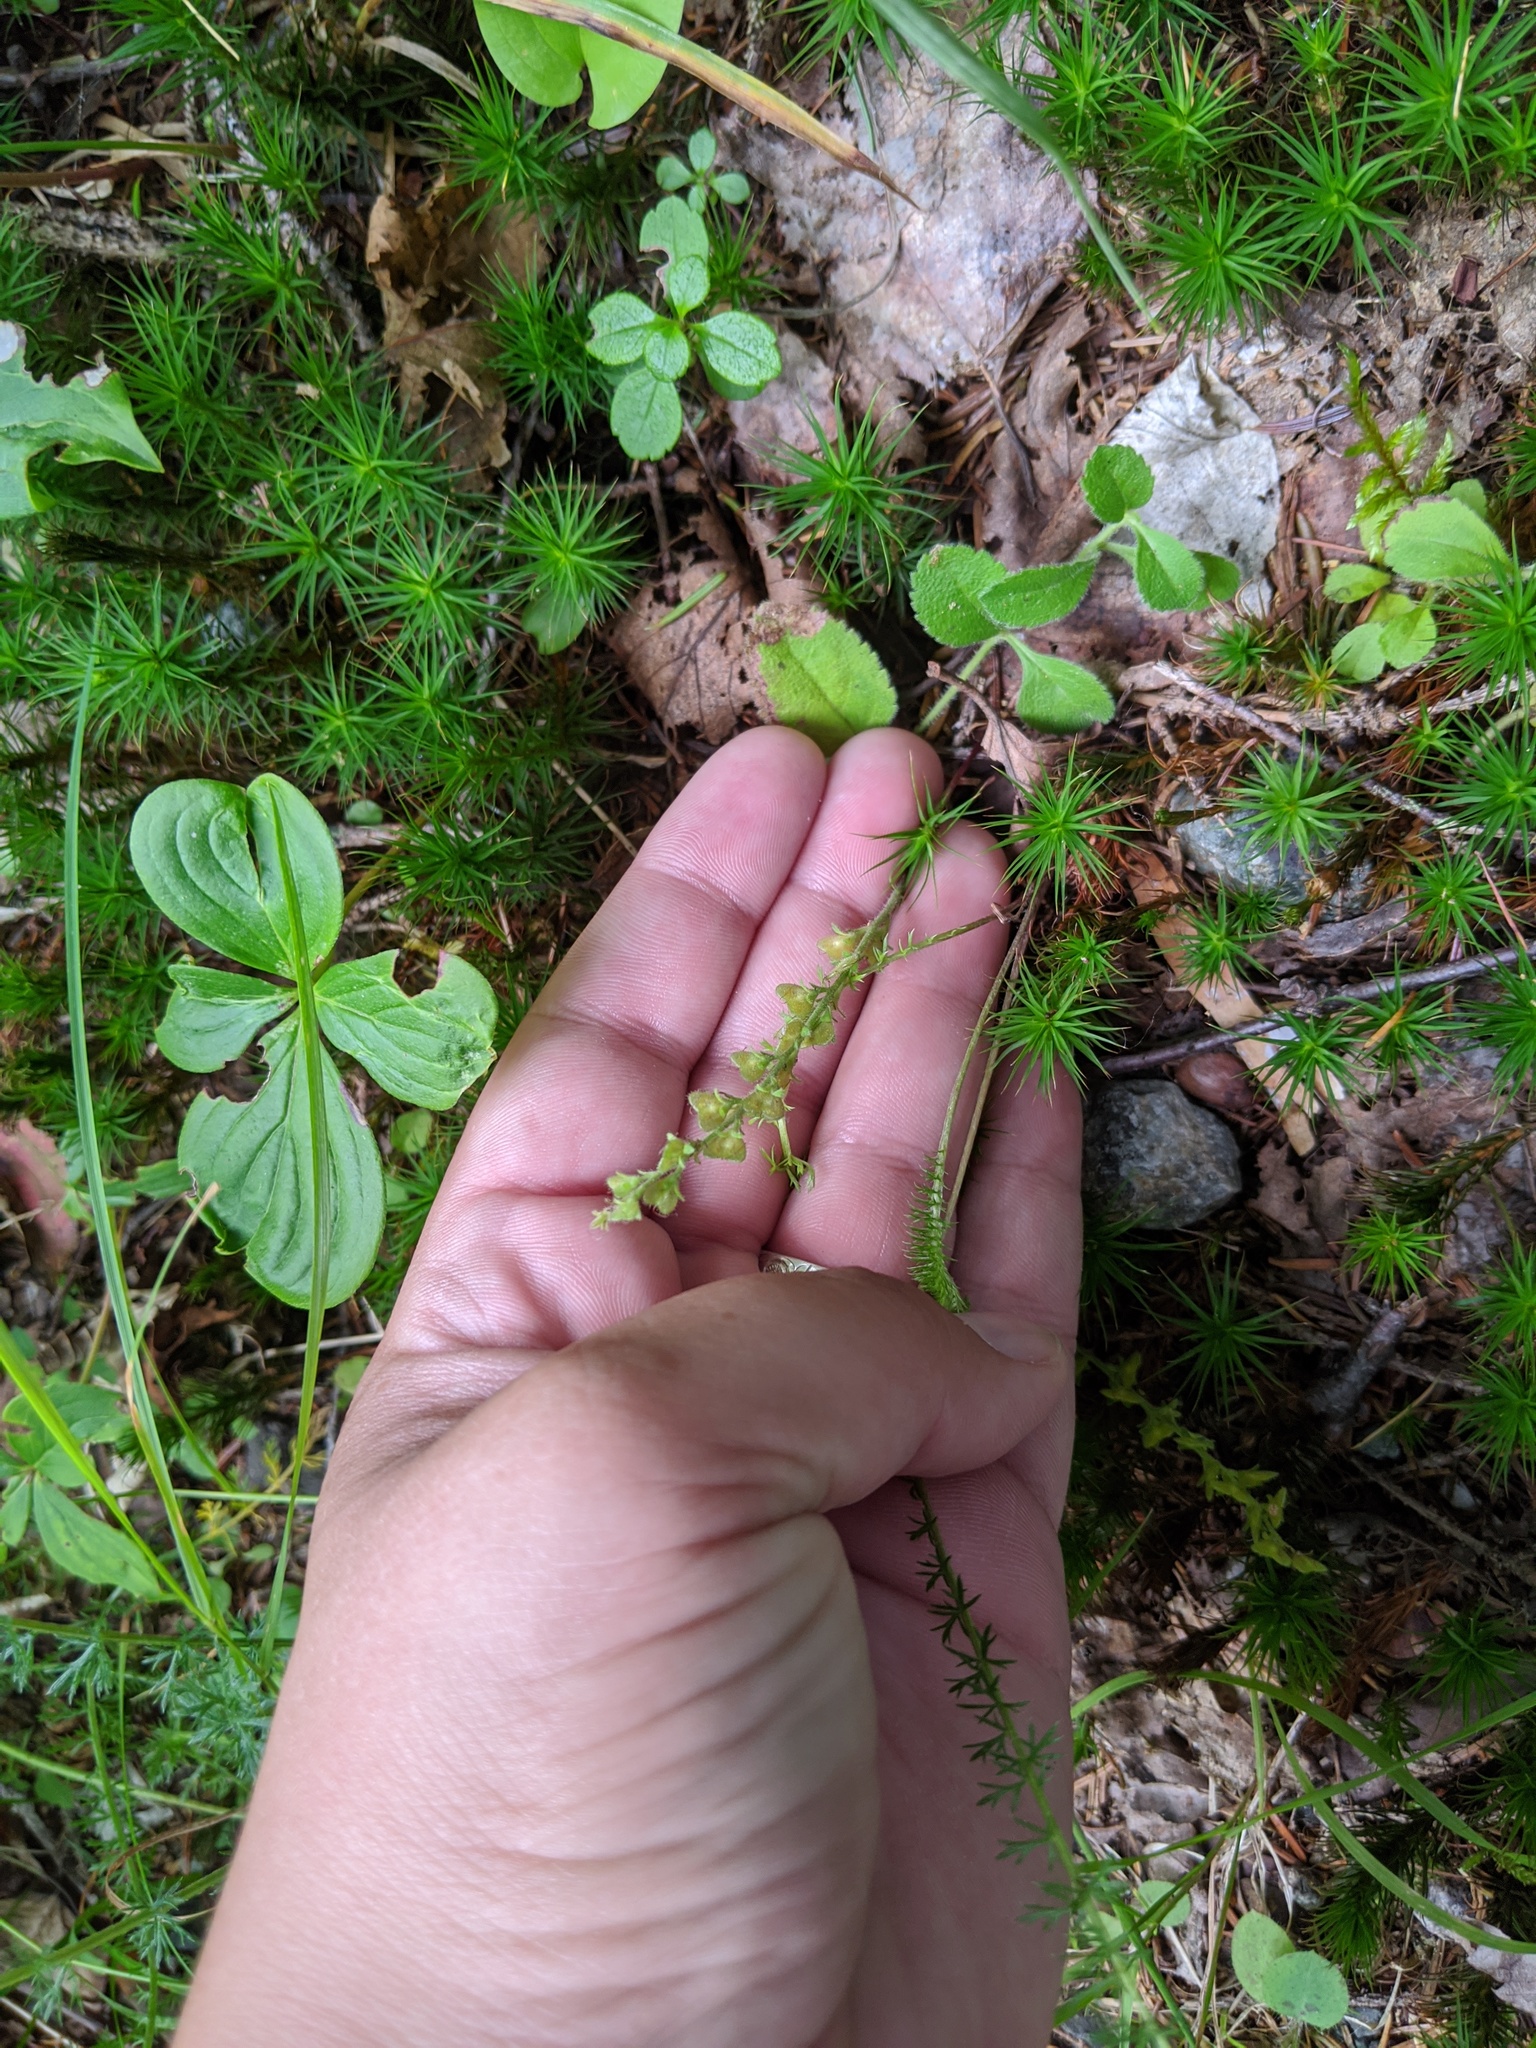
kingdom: Plantae
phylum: Tracheophyta
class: Magnoliopsida
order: Lamiales
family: Plantaginaceae
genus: Veronica
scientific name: Veronica officinalis
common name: Common speedwell
